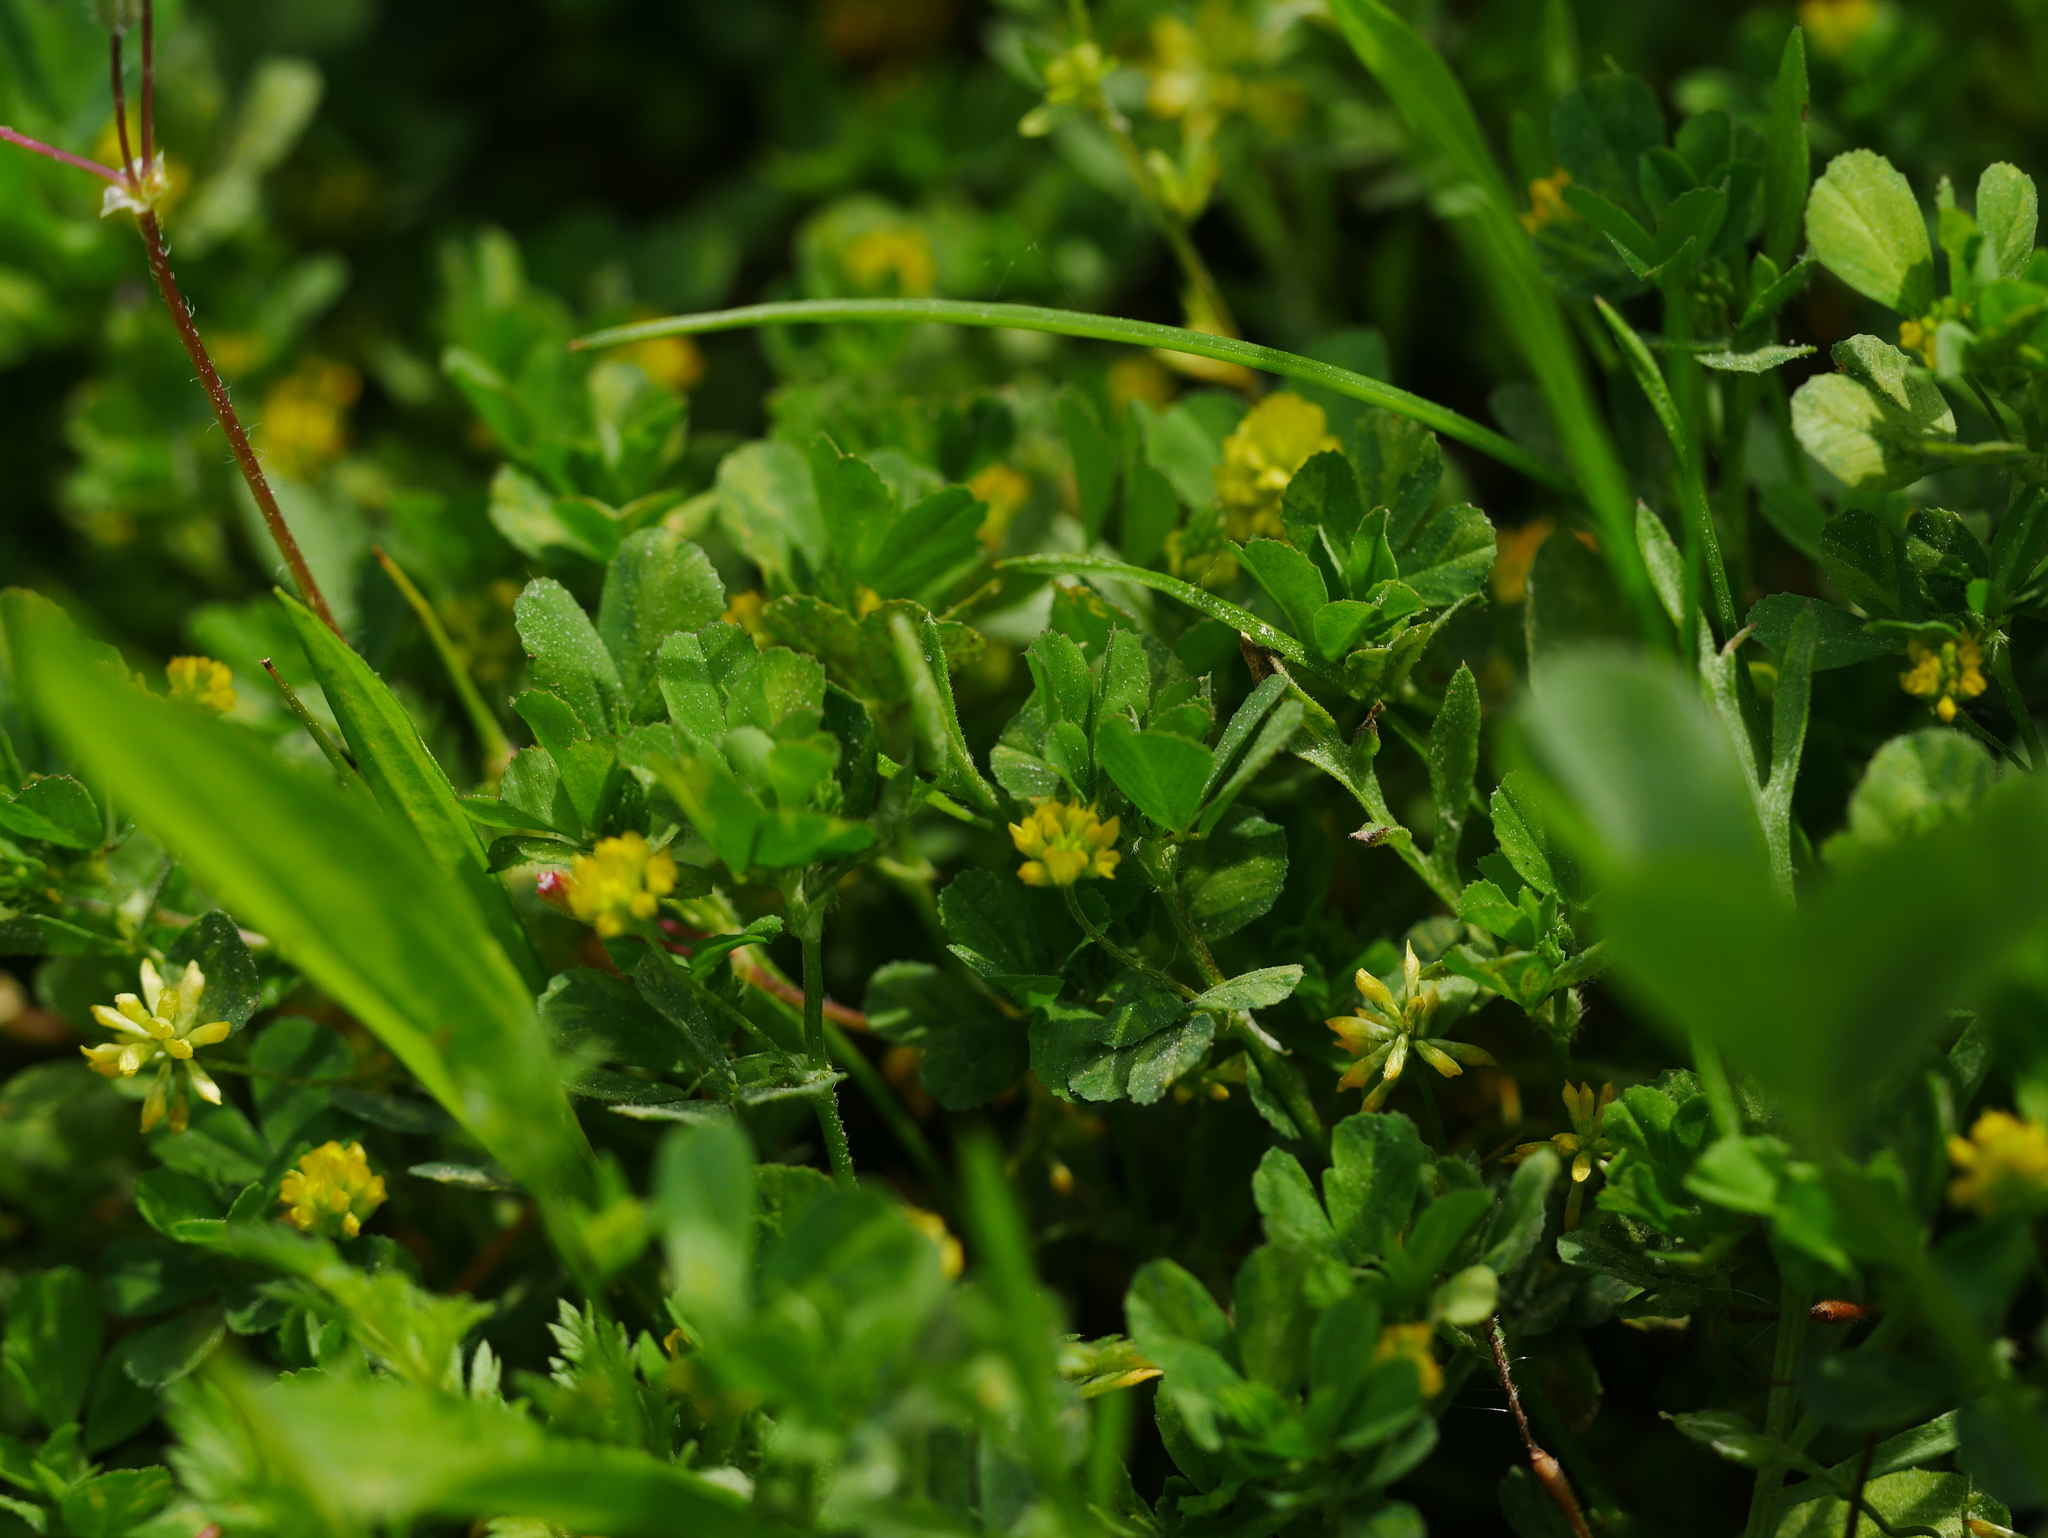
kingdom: Plantae
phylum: Tracheophyta
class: Magnoliopsida
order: Fabales
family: Fabaceae
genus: Trifolium
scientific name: Trifolium dubium
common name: Suckling clover
